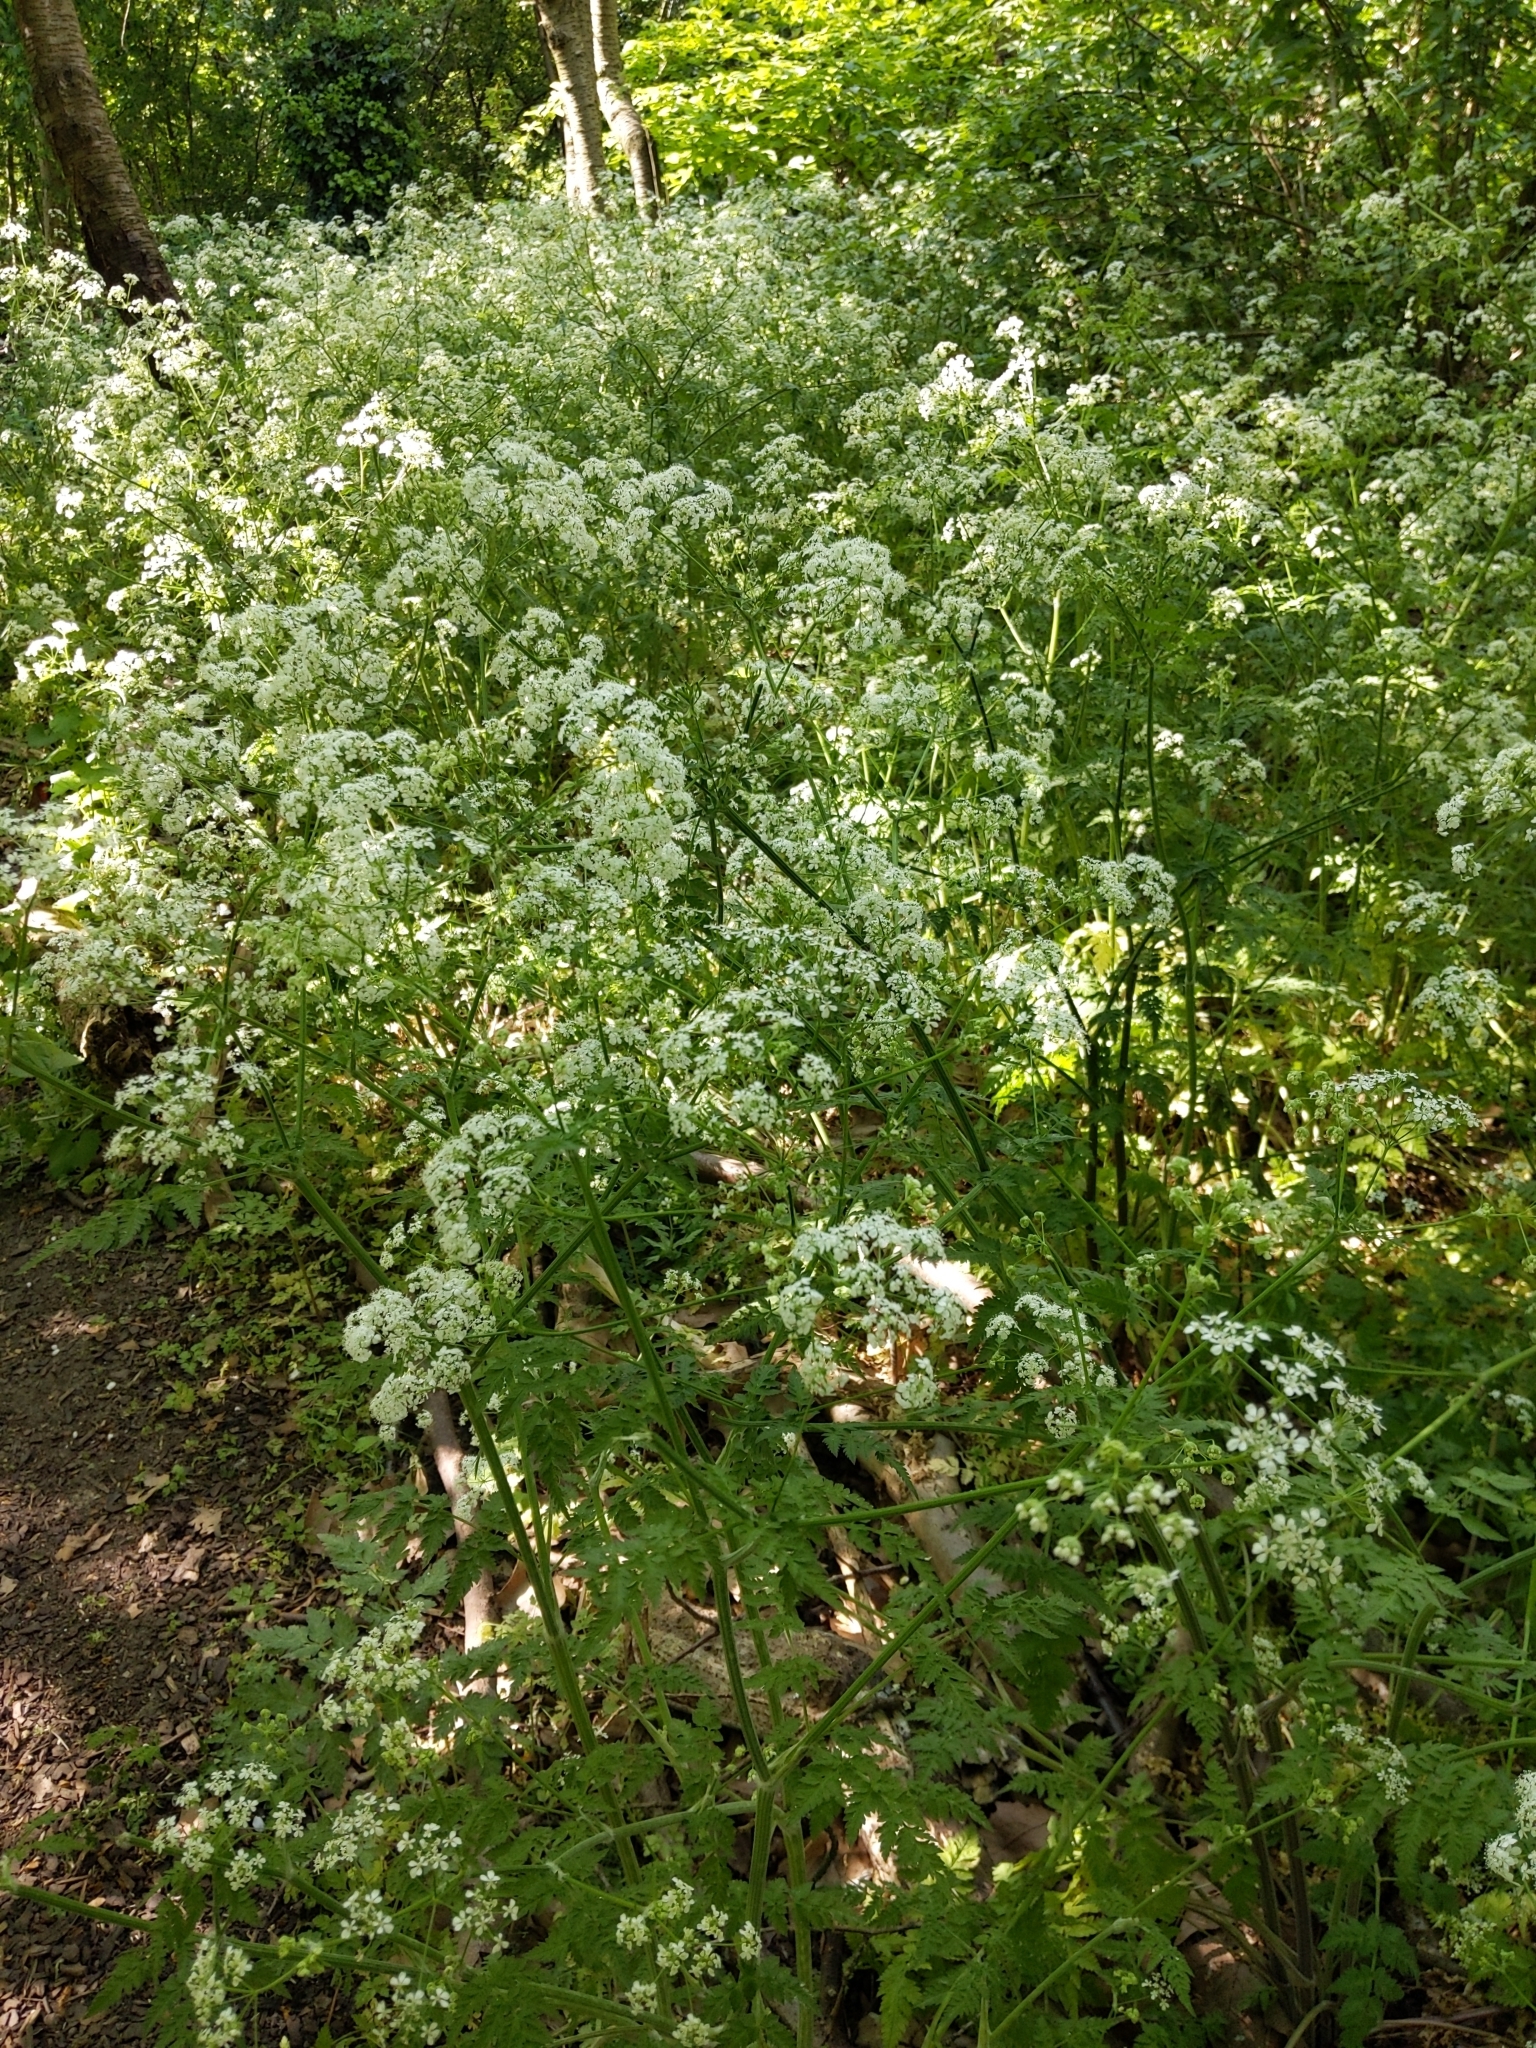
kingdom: Plantae
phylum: Tracheophyta
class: Magnoliopsida
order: Apiales
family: Apiaceae
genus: Anthriscus
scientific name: Anthriscus sylvestris
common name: Cow parsley
